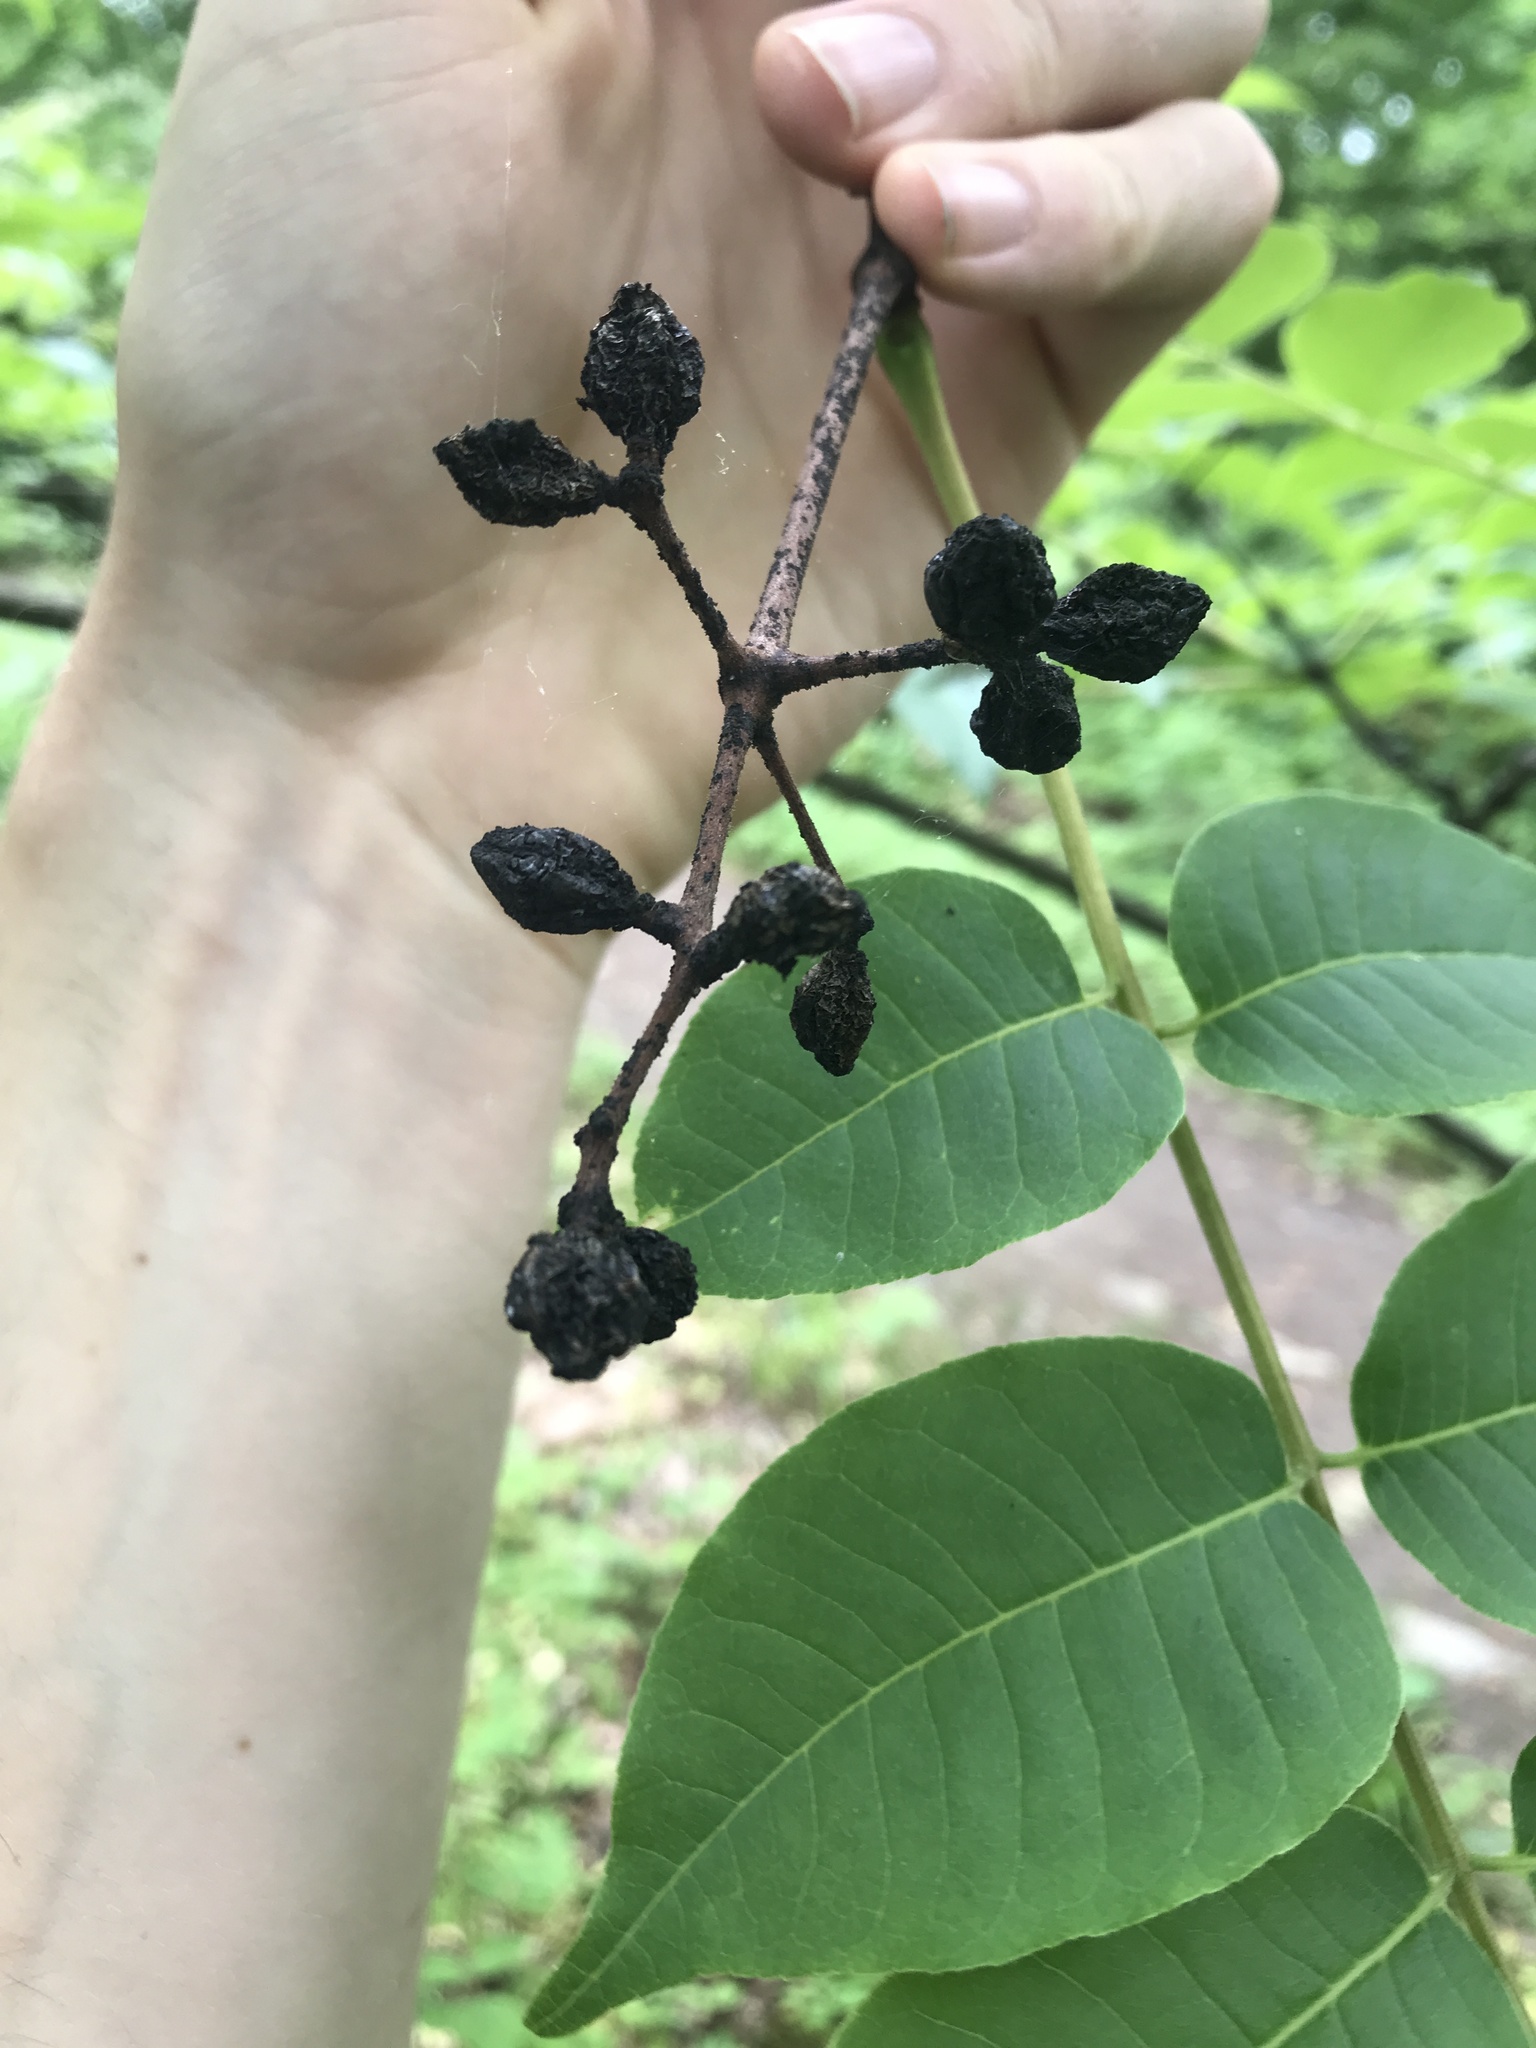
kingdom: Plantae
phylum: Tracheophyta
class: Magnoliopsida
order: Sapindales
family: Rutaceae
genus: Phellodendron
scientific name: Phellodendron amurense
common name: Amur corktree
